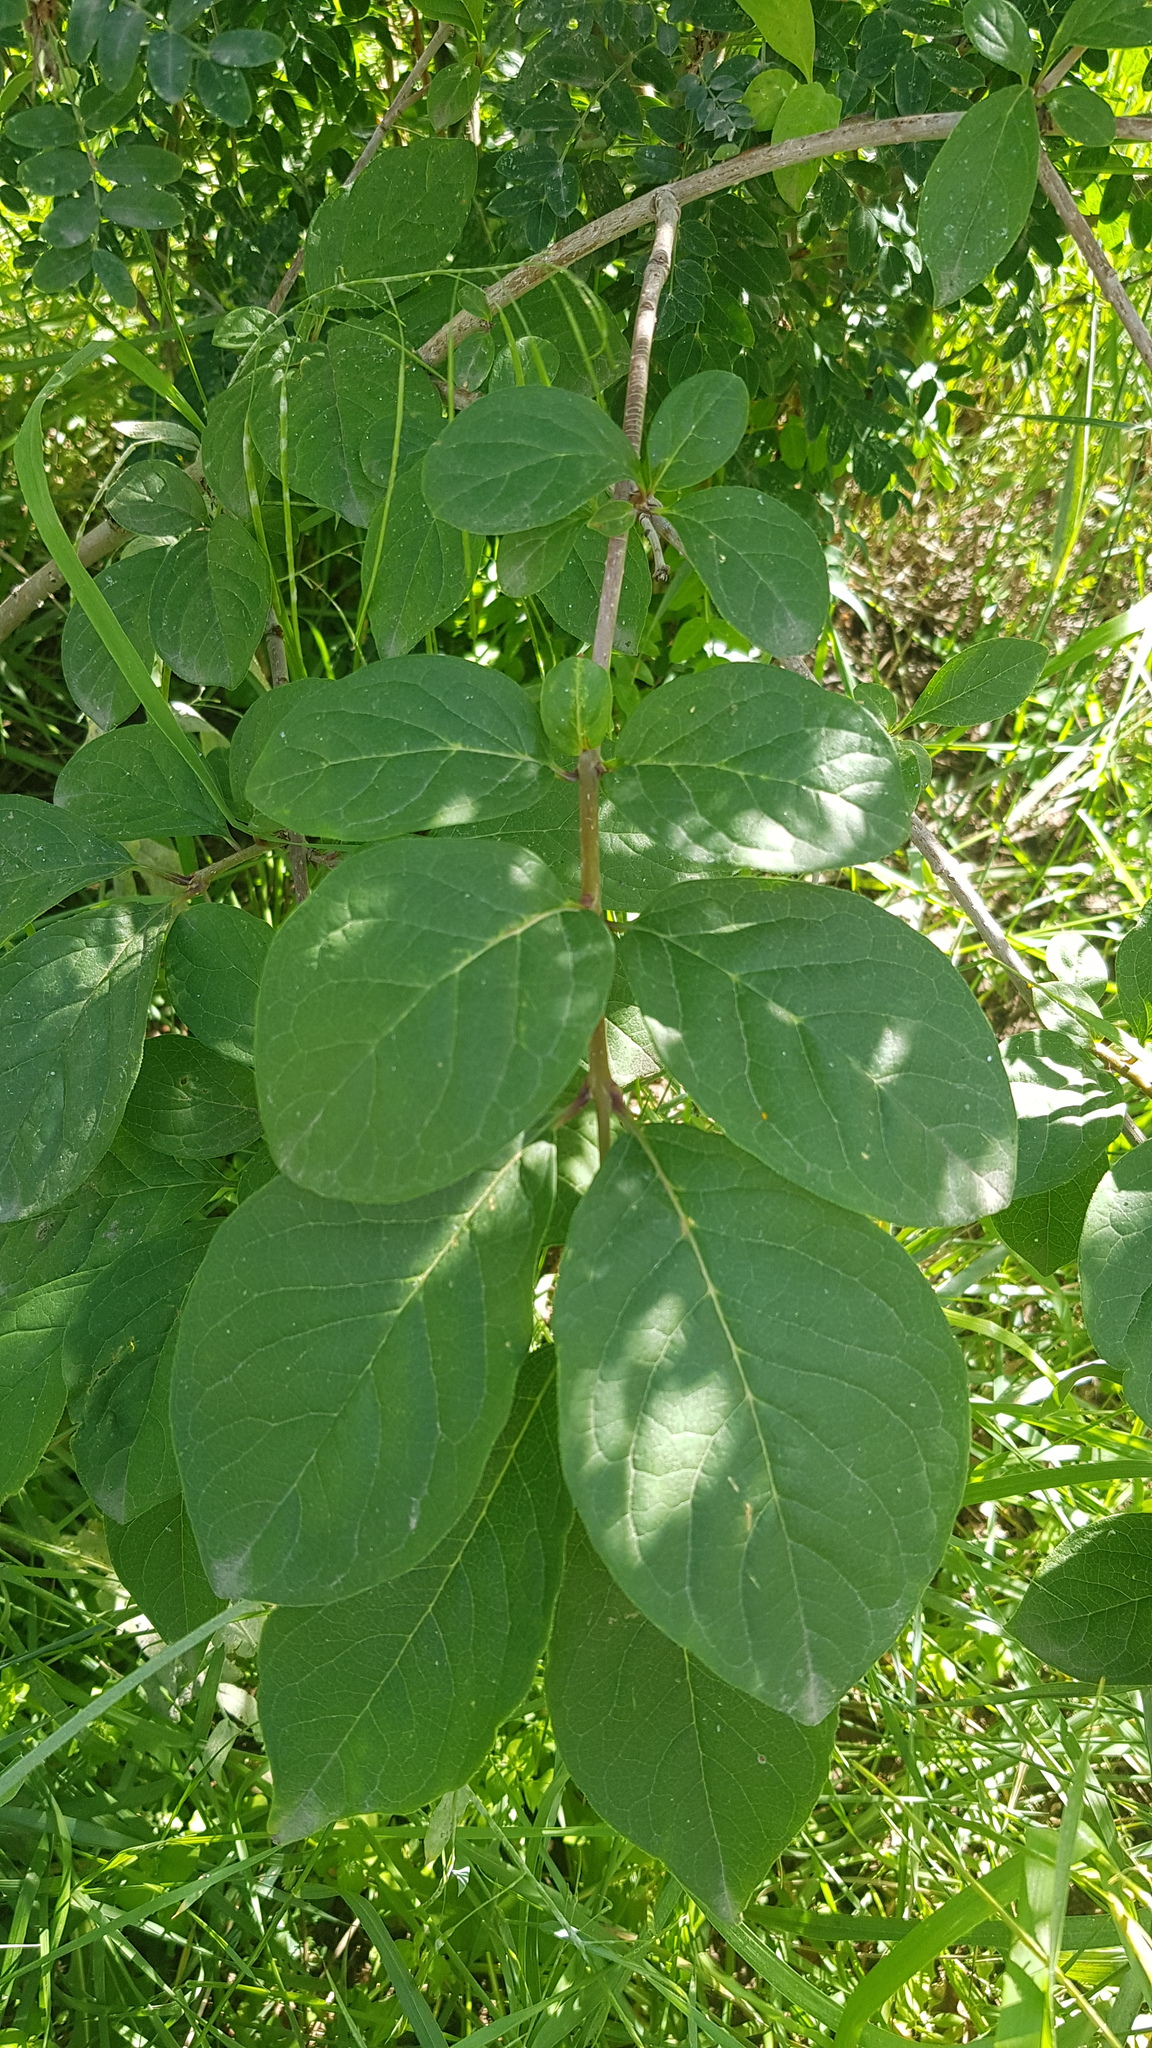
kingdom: Plantae
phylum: Tracheophyta
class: Magnoliopsida
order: Lamiales
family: Oleaceae
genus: Syringa
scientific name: Syringa josikaea
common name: Hungarian lilac
